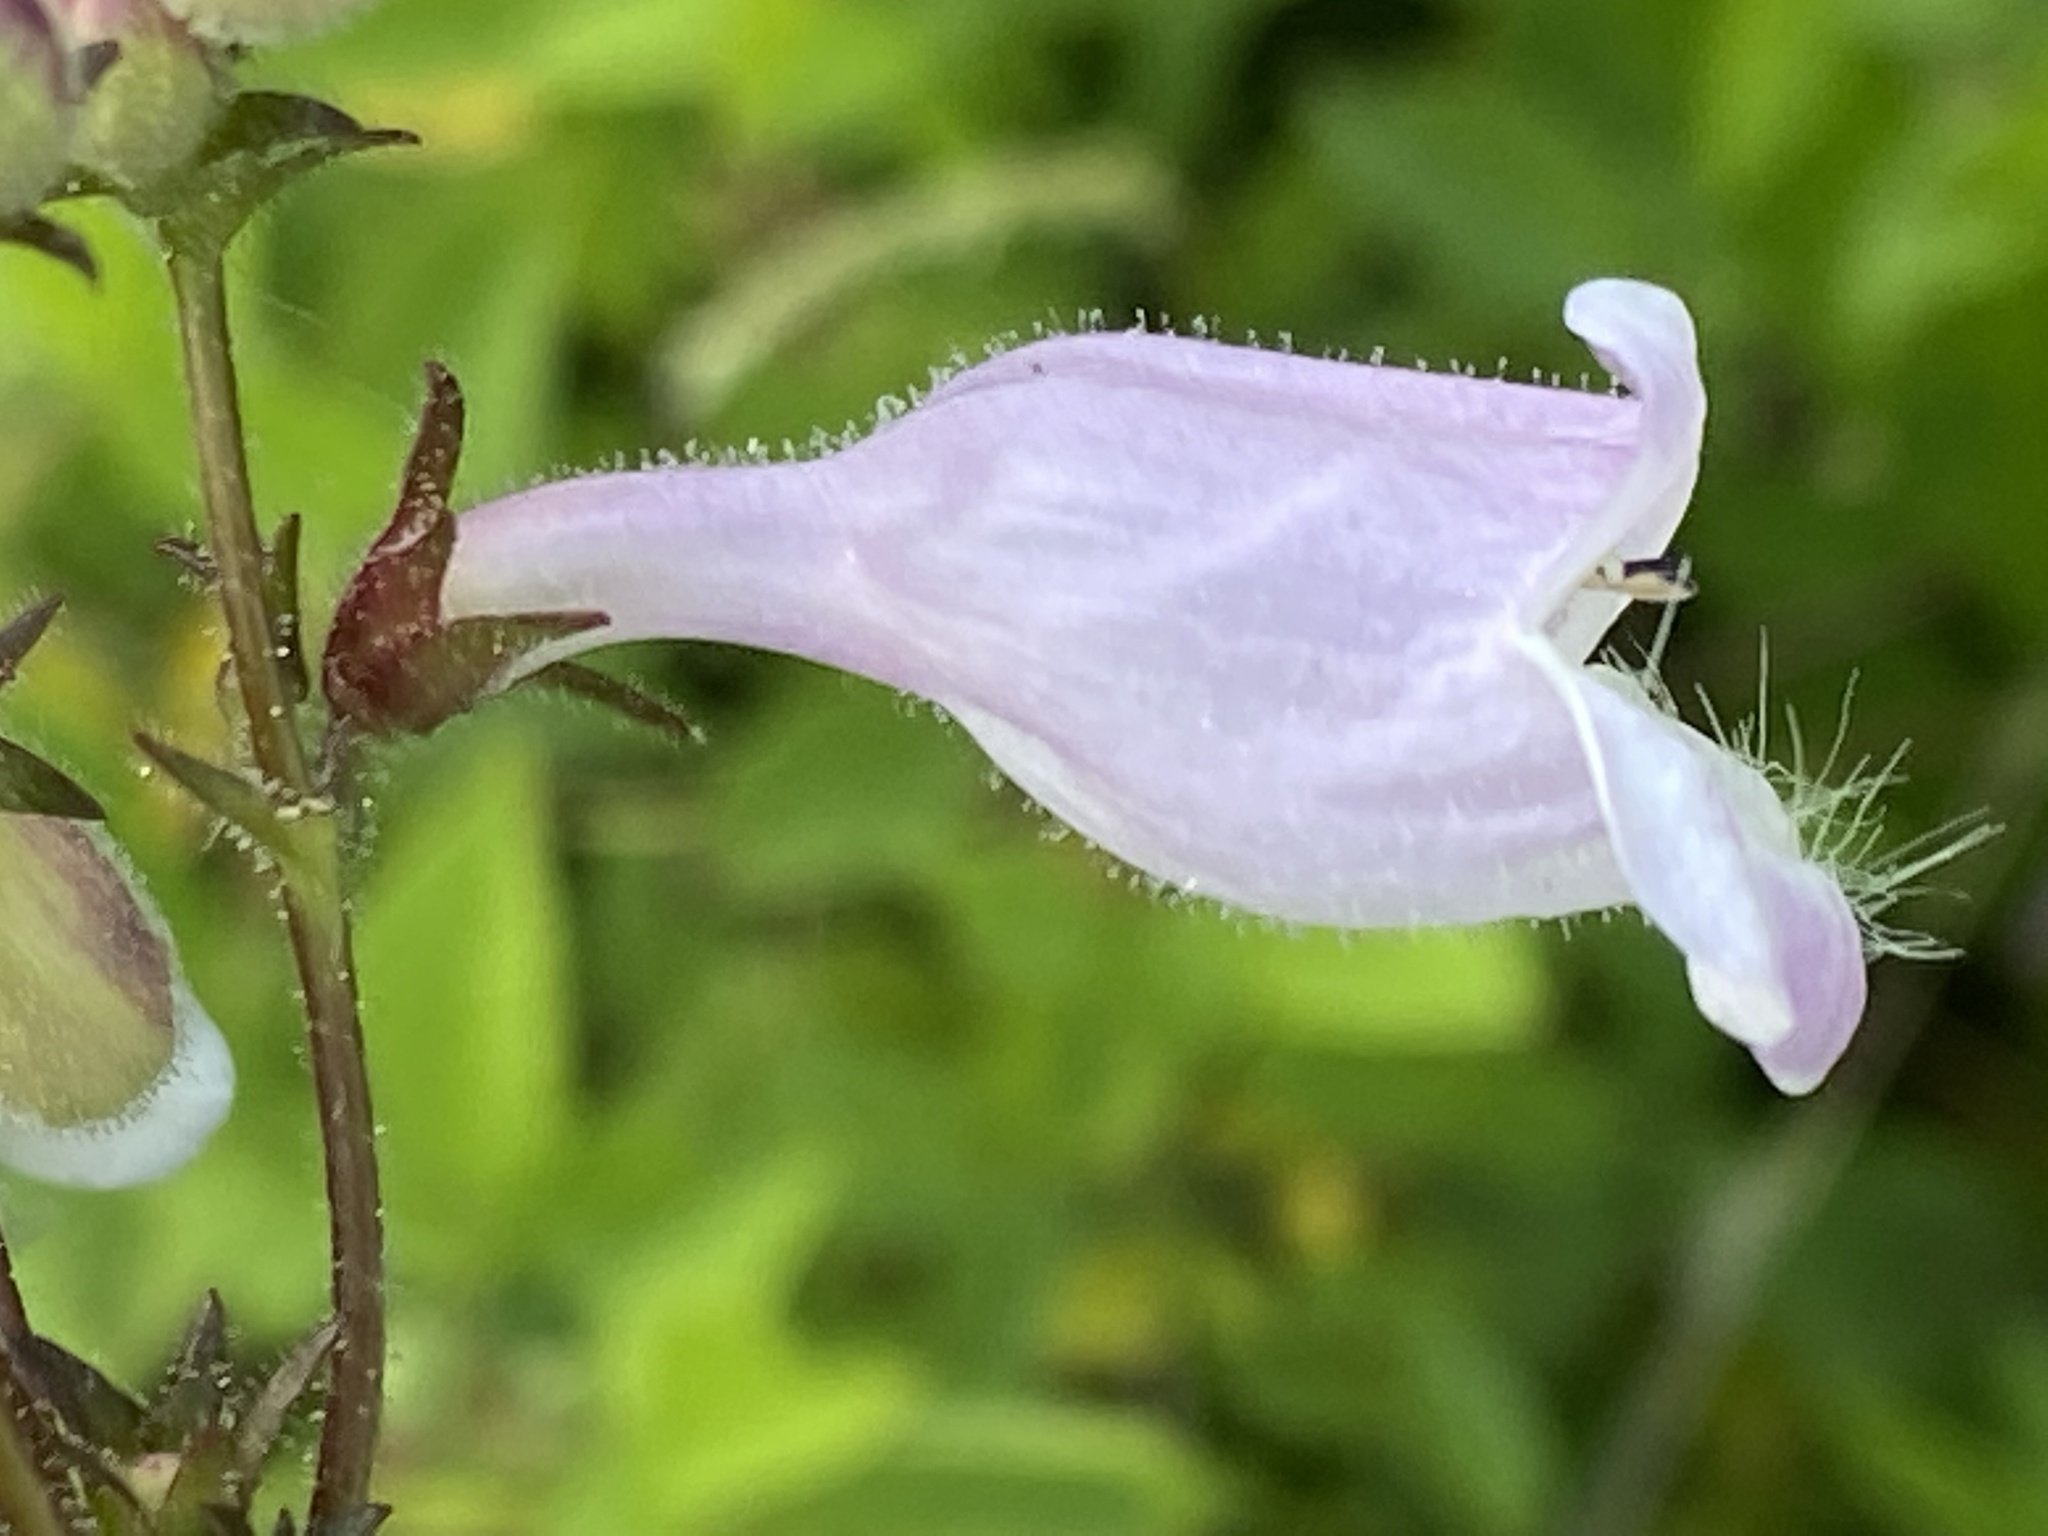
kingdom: Plantae
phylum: Tracheophyta
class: Magnoliopsida
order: Lamiales
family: Plantaginaceae
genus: Penstemon
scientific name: Penstemon calycosus
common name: Long-sepal beardtongue
